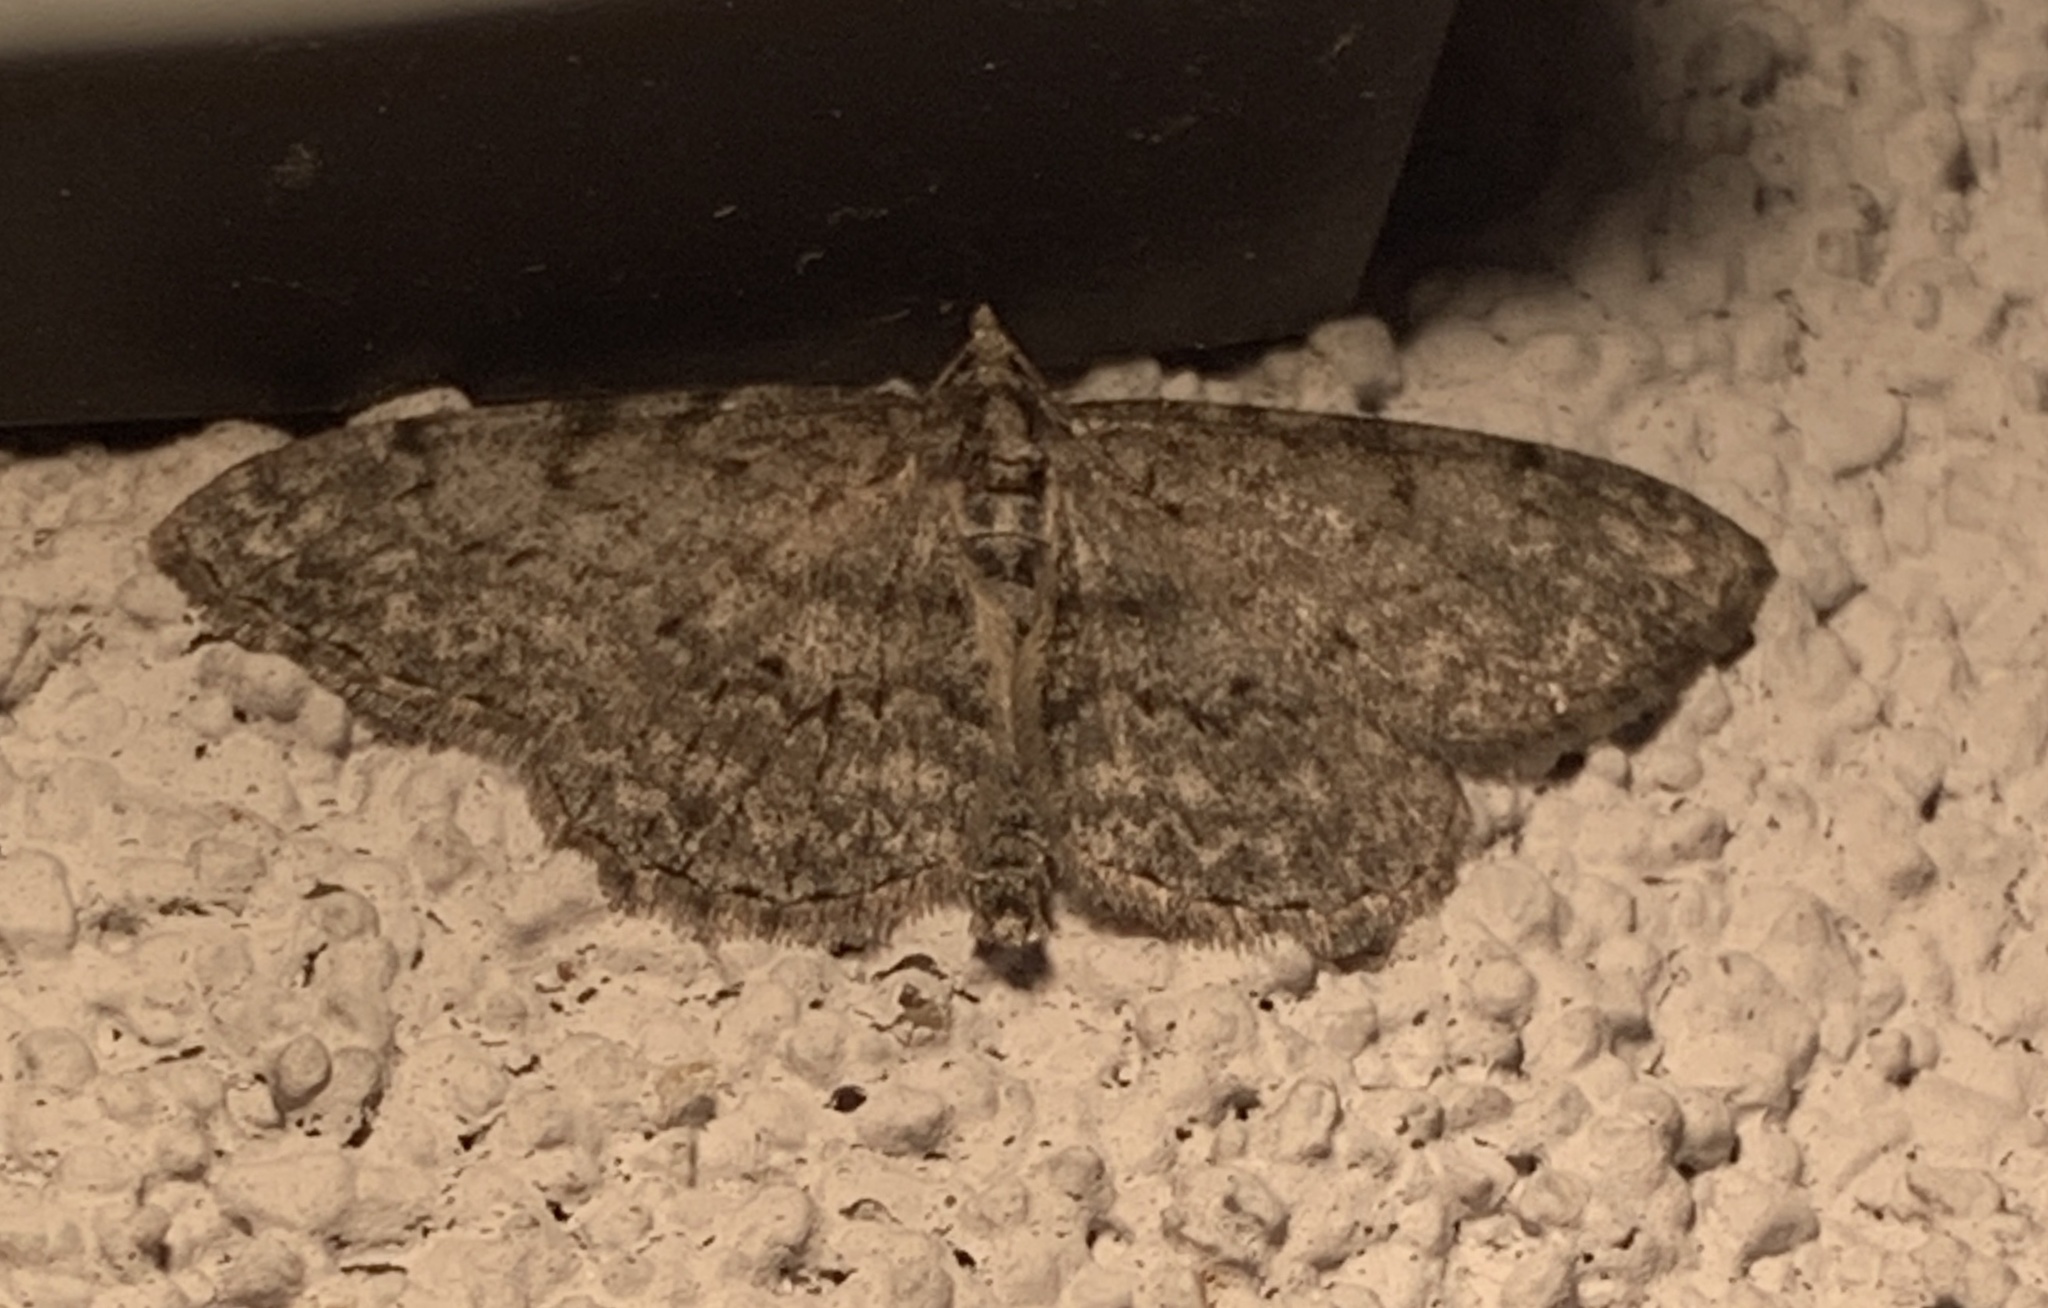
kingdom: Animalia
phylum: Arthropoda
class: Insecta
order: Lepidoptera
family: Geometridae
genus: Protoboarmia
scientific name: Protoboarmia porcelaria
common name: Porcelain gray
